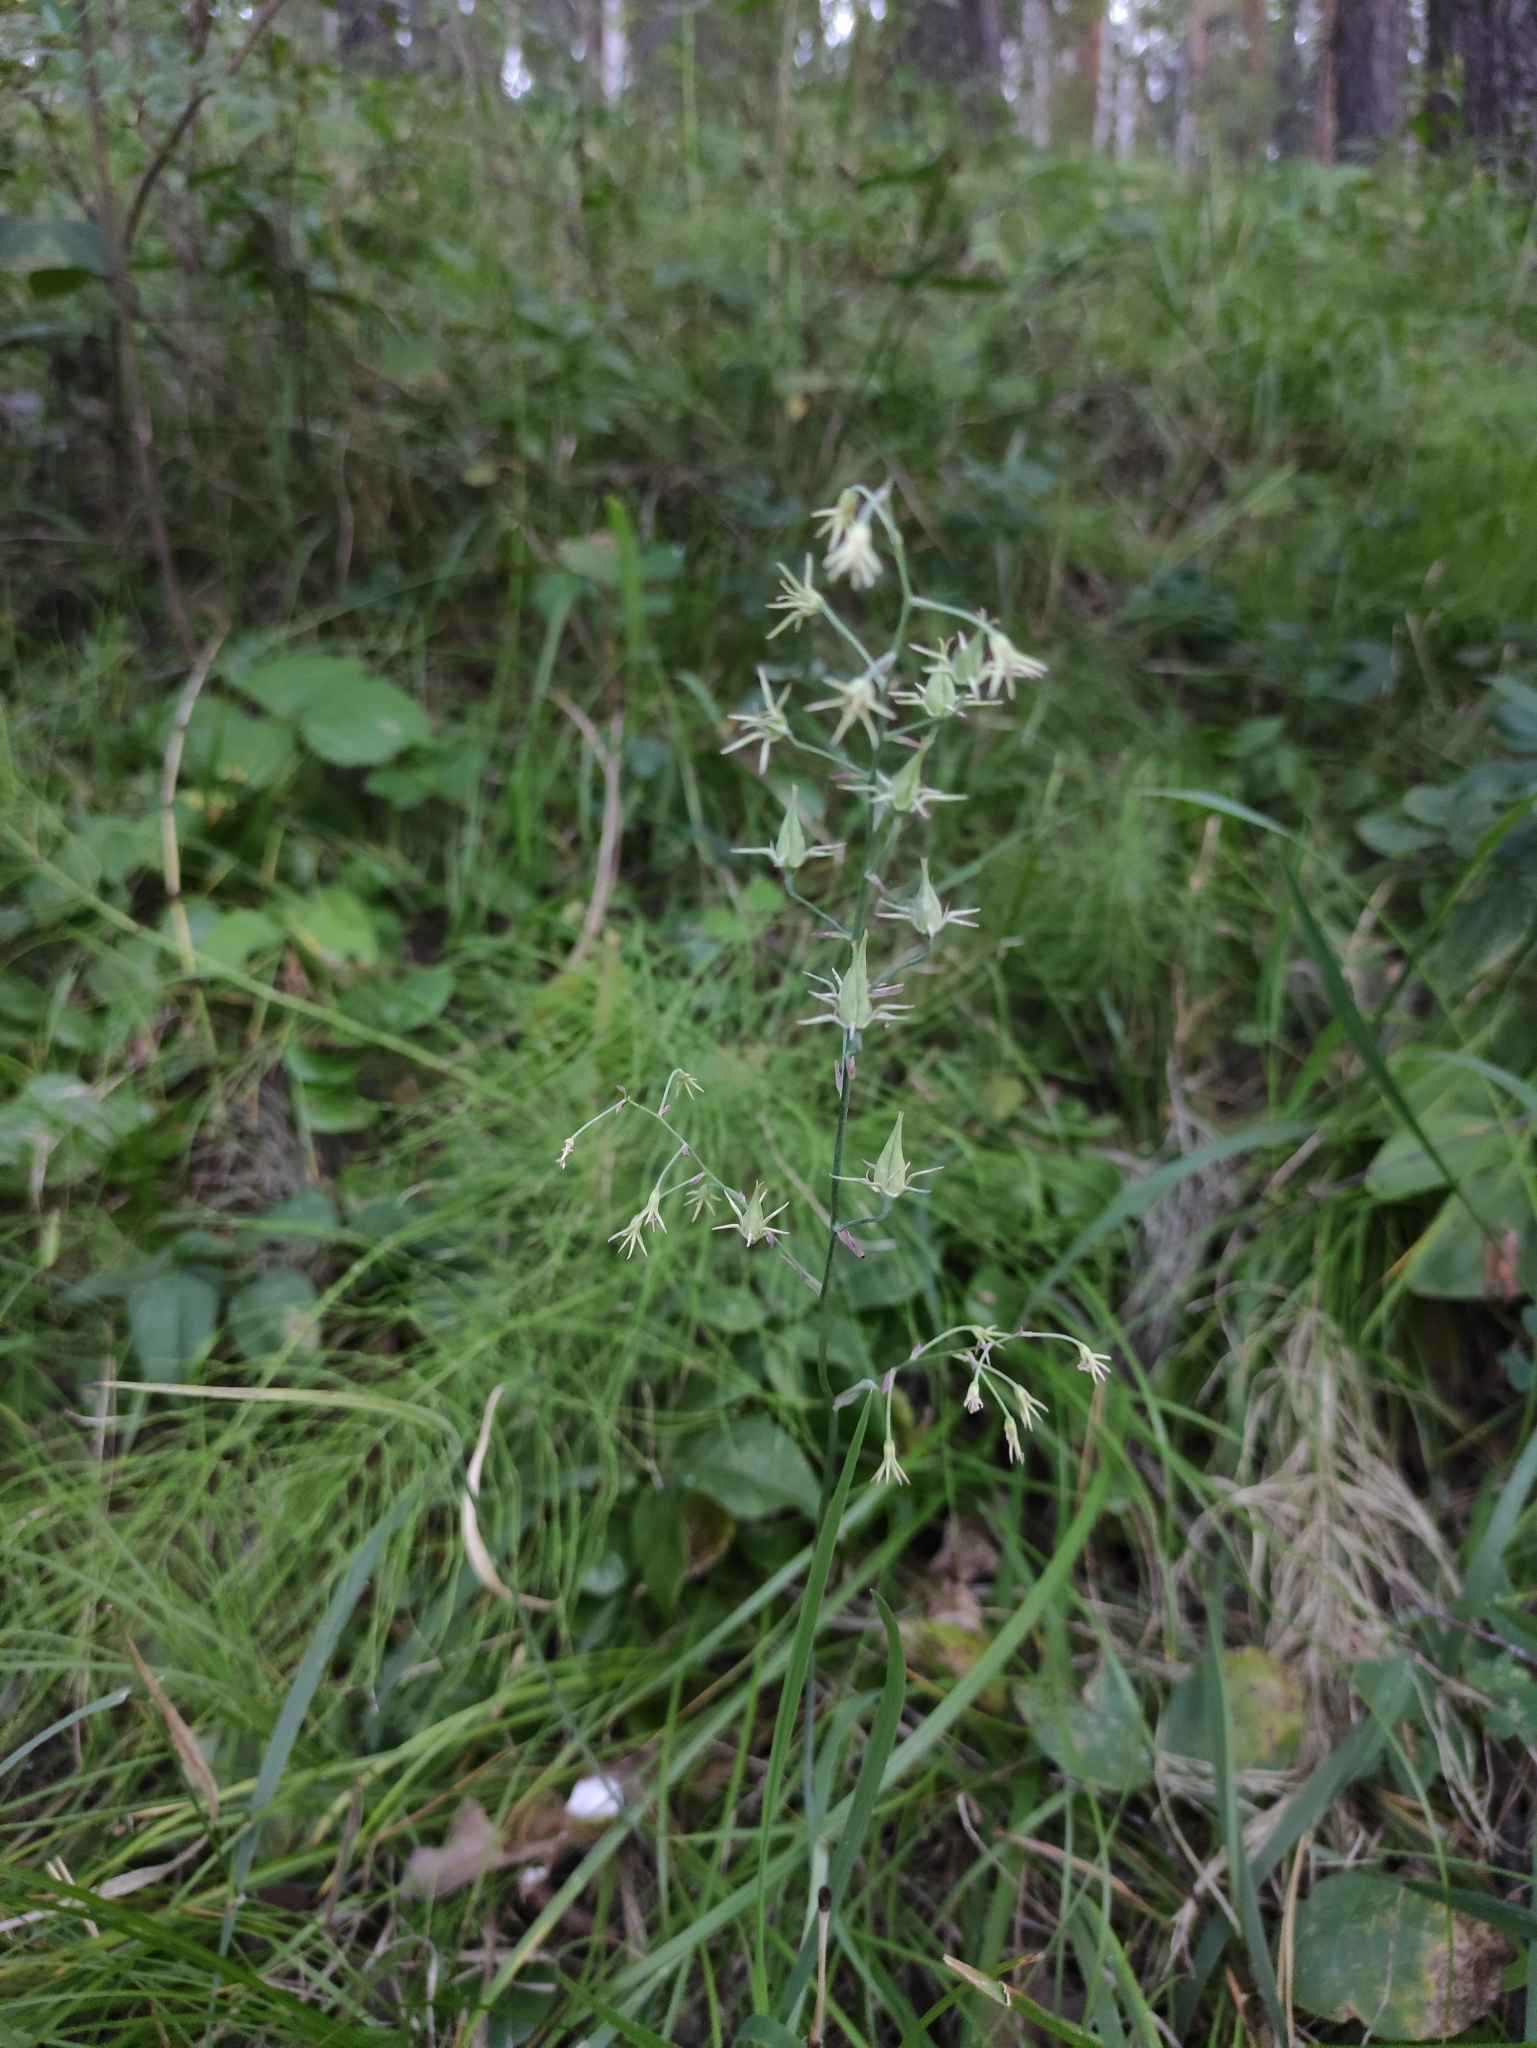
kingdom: Plantae
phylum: Tracheophyta
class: Liliopsida
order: Liliales
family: Melanthiaceae
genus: Anticlea
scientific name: Anticlea sibirica
